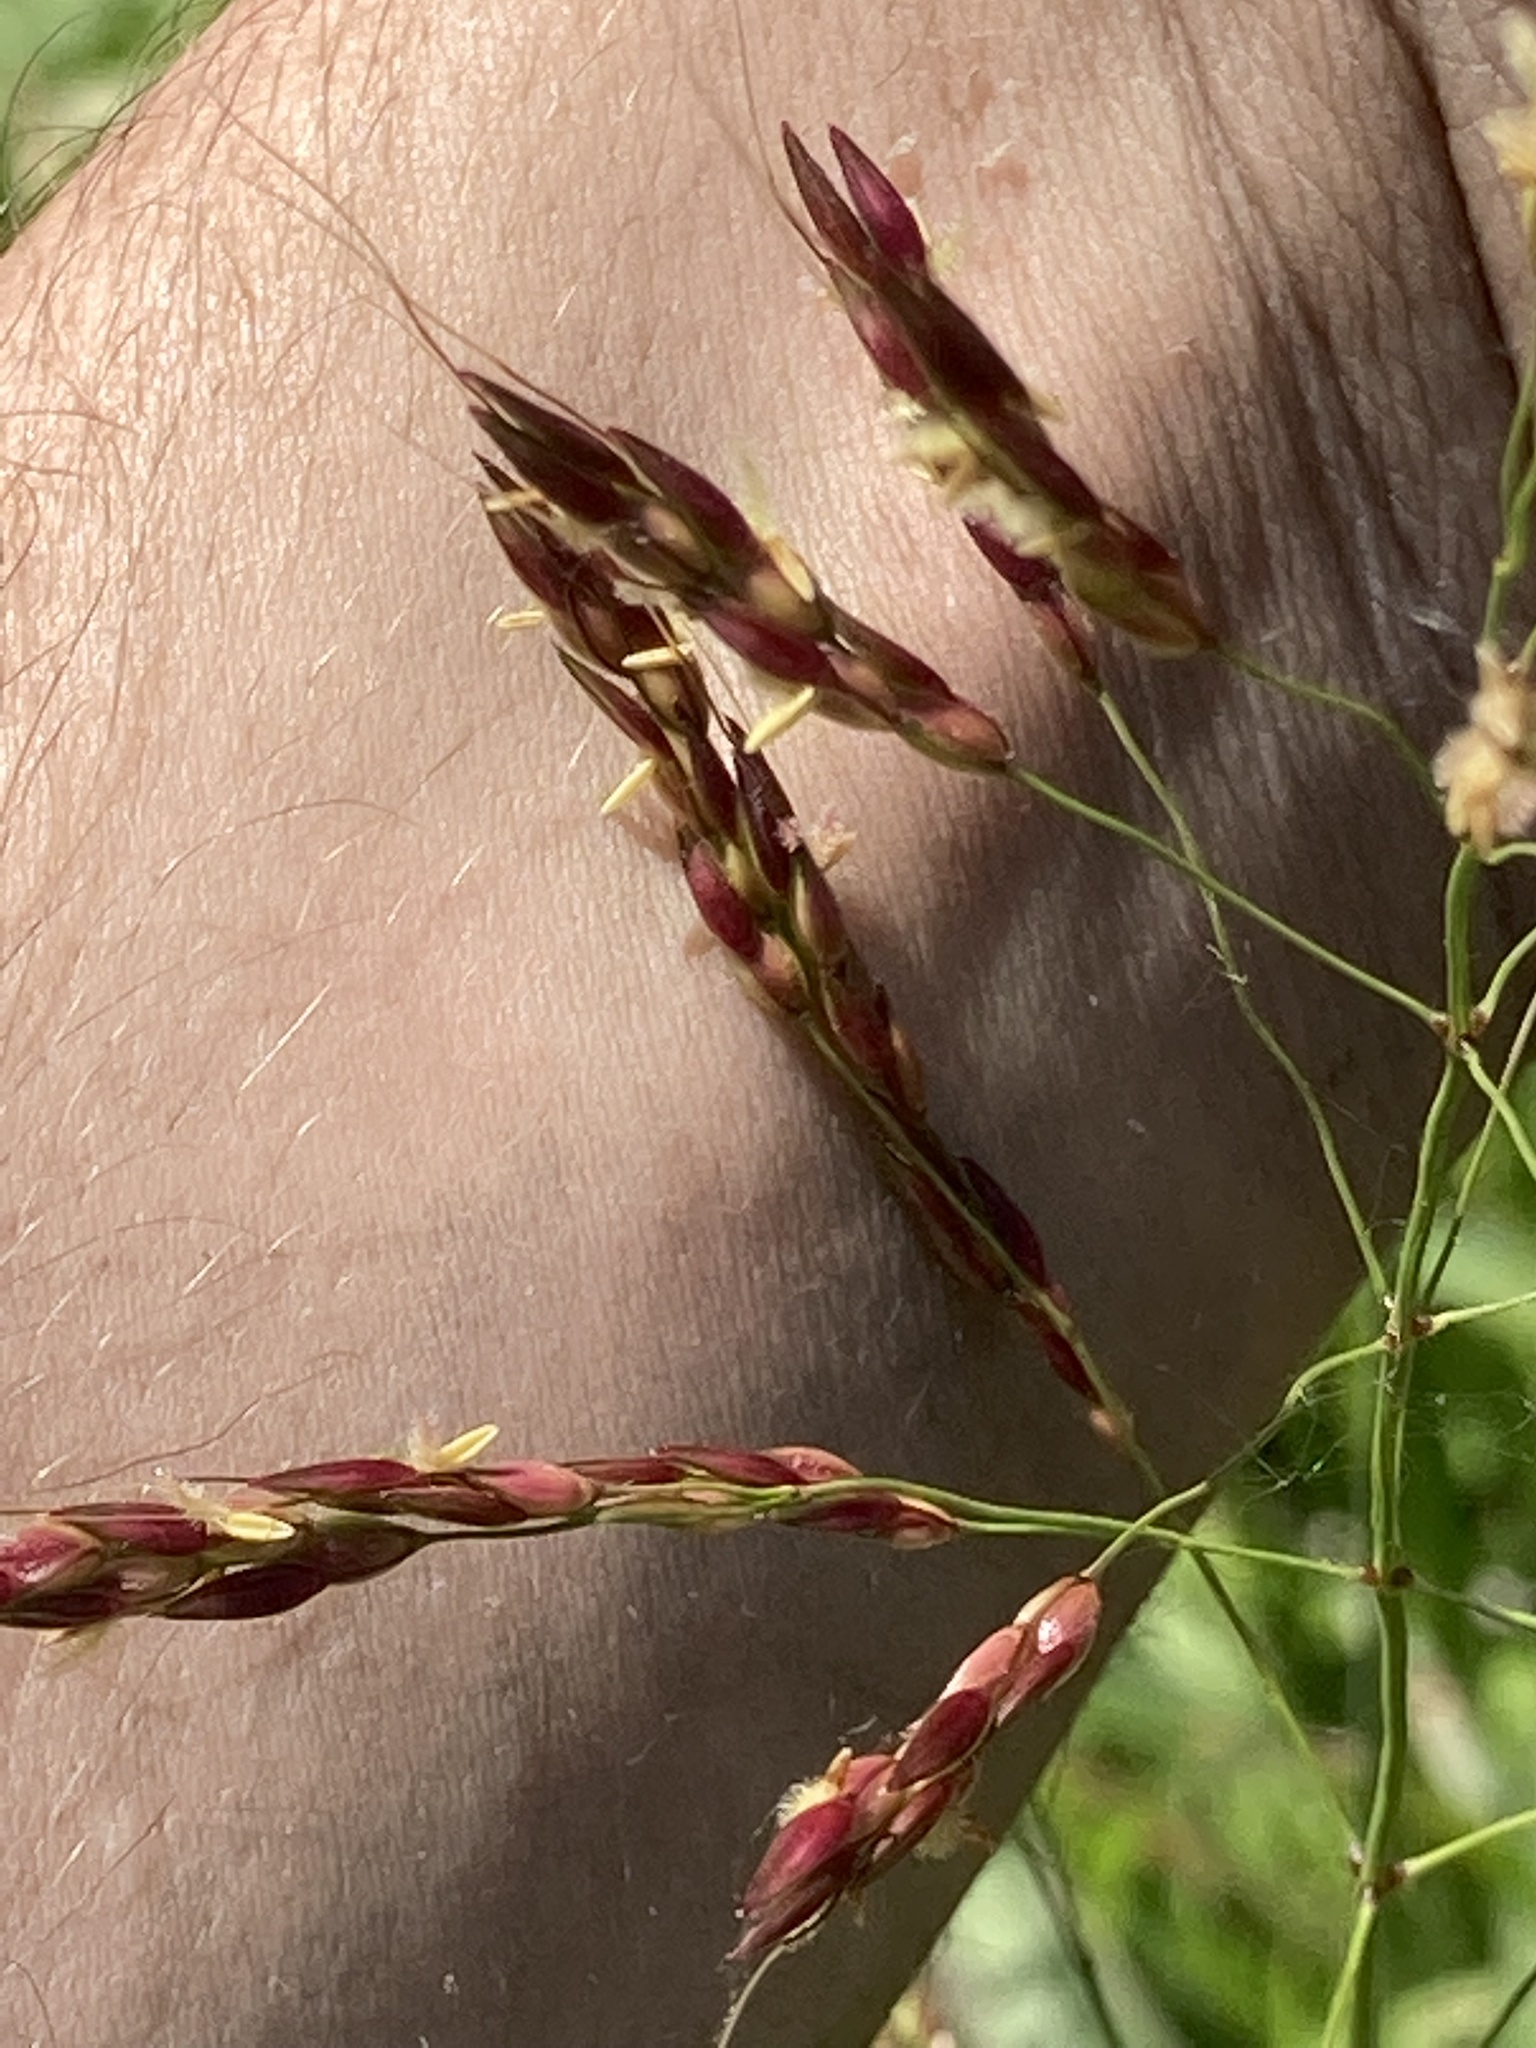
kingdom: Plantae
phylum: Tracheophyta
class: Liliopsida
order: Poales
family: Poaceae
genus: Sorghum
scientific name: Sorghum halepense
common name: Johnson-grass
